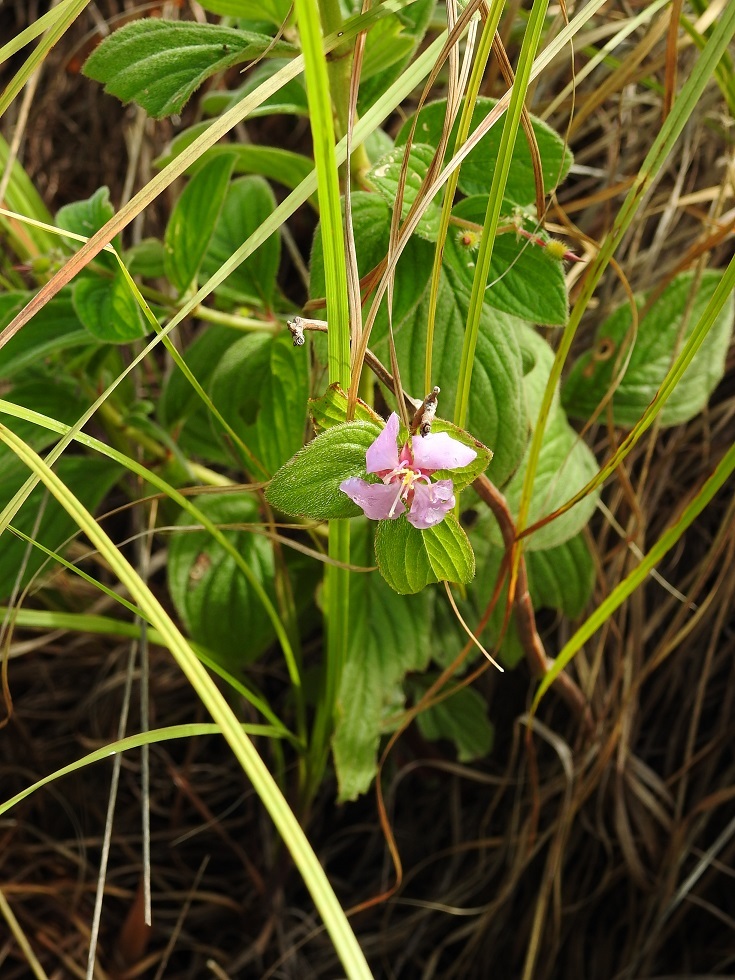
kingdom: Plantae
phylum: Tracheophyta
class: Magnoliopsida
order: Myrtales
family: Melastomataceae
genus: Heterocentron
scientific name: Heterocentron muricatum
